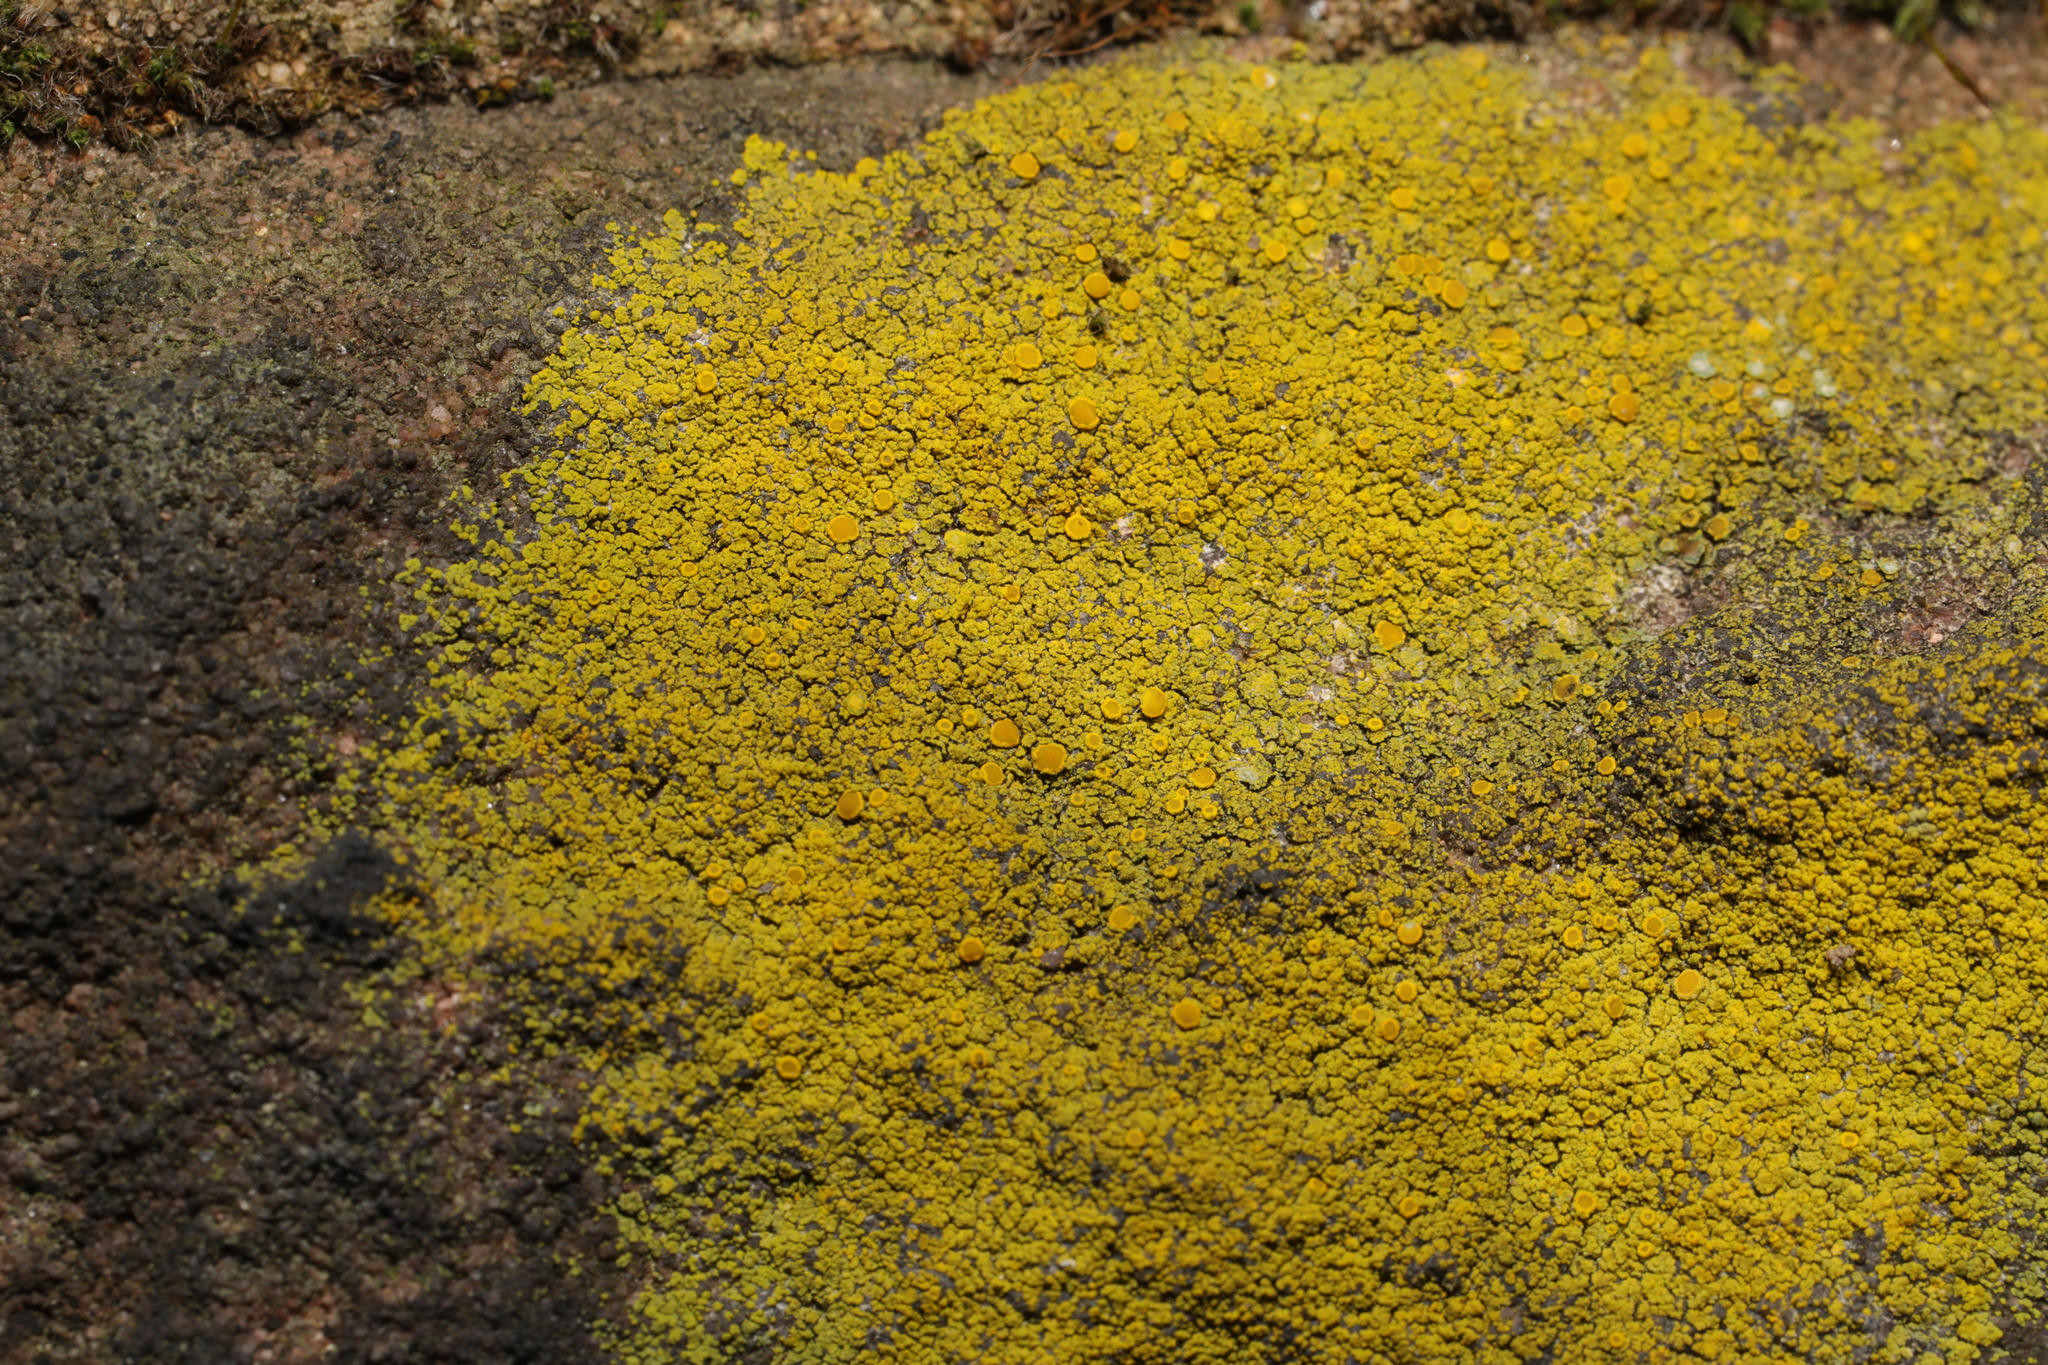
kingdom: Fungi
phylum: Ascomycota
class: Candelariomycetes
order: Candelariales
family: Candelariaceae
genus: Candelariella
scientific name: Candelariella vitellina
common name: Common goldspeck
